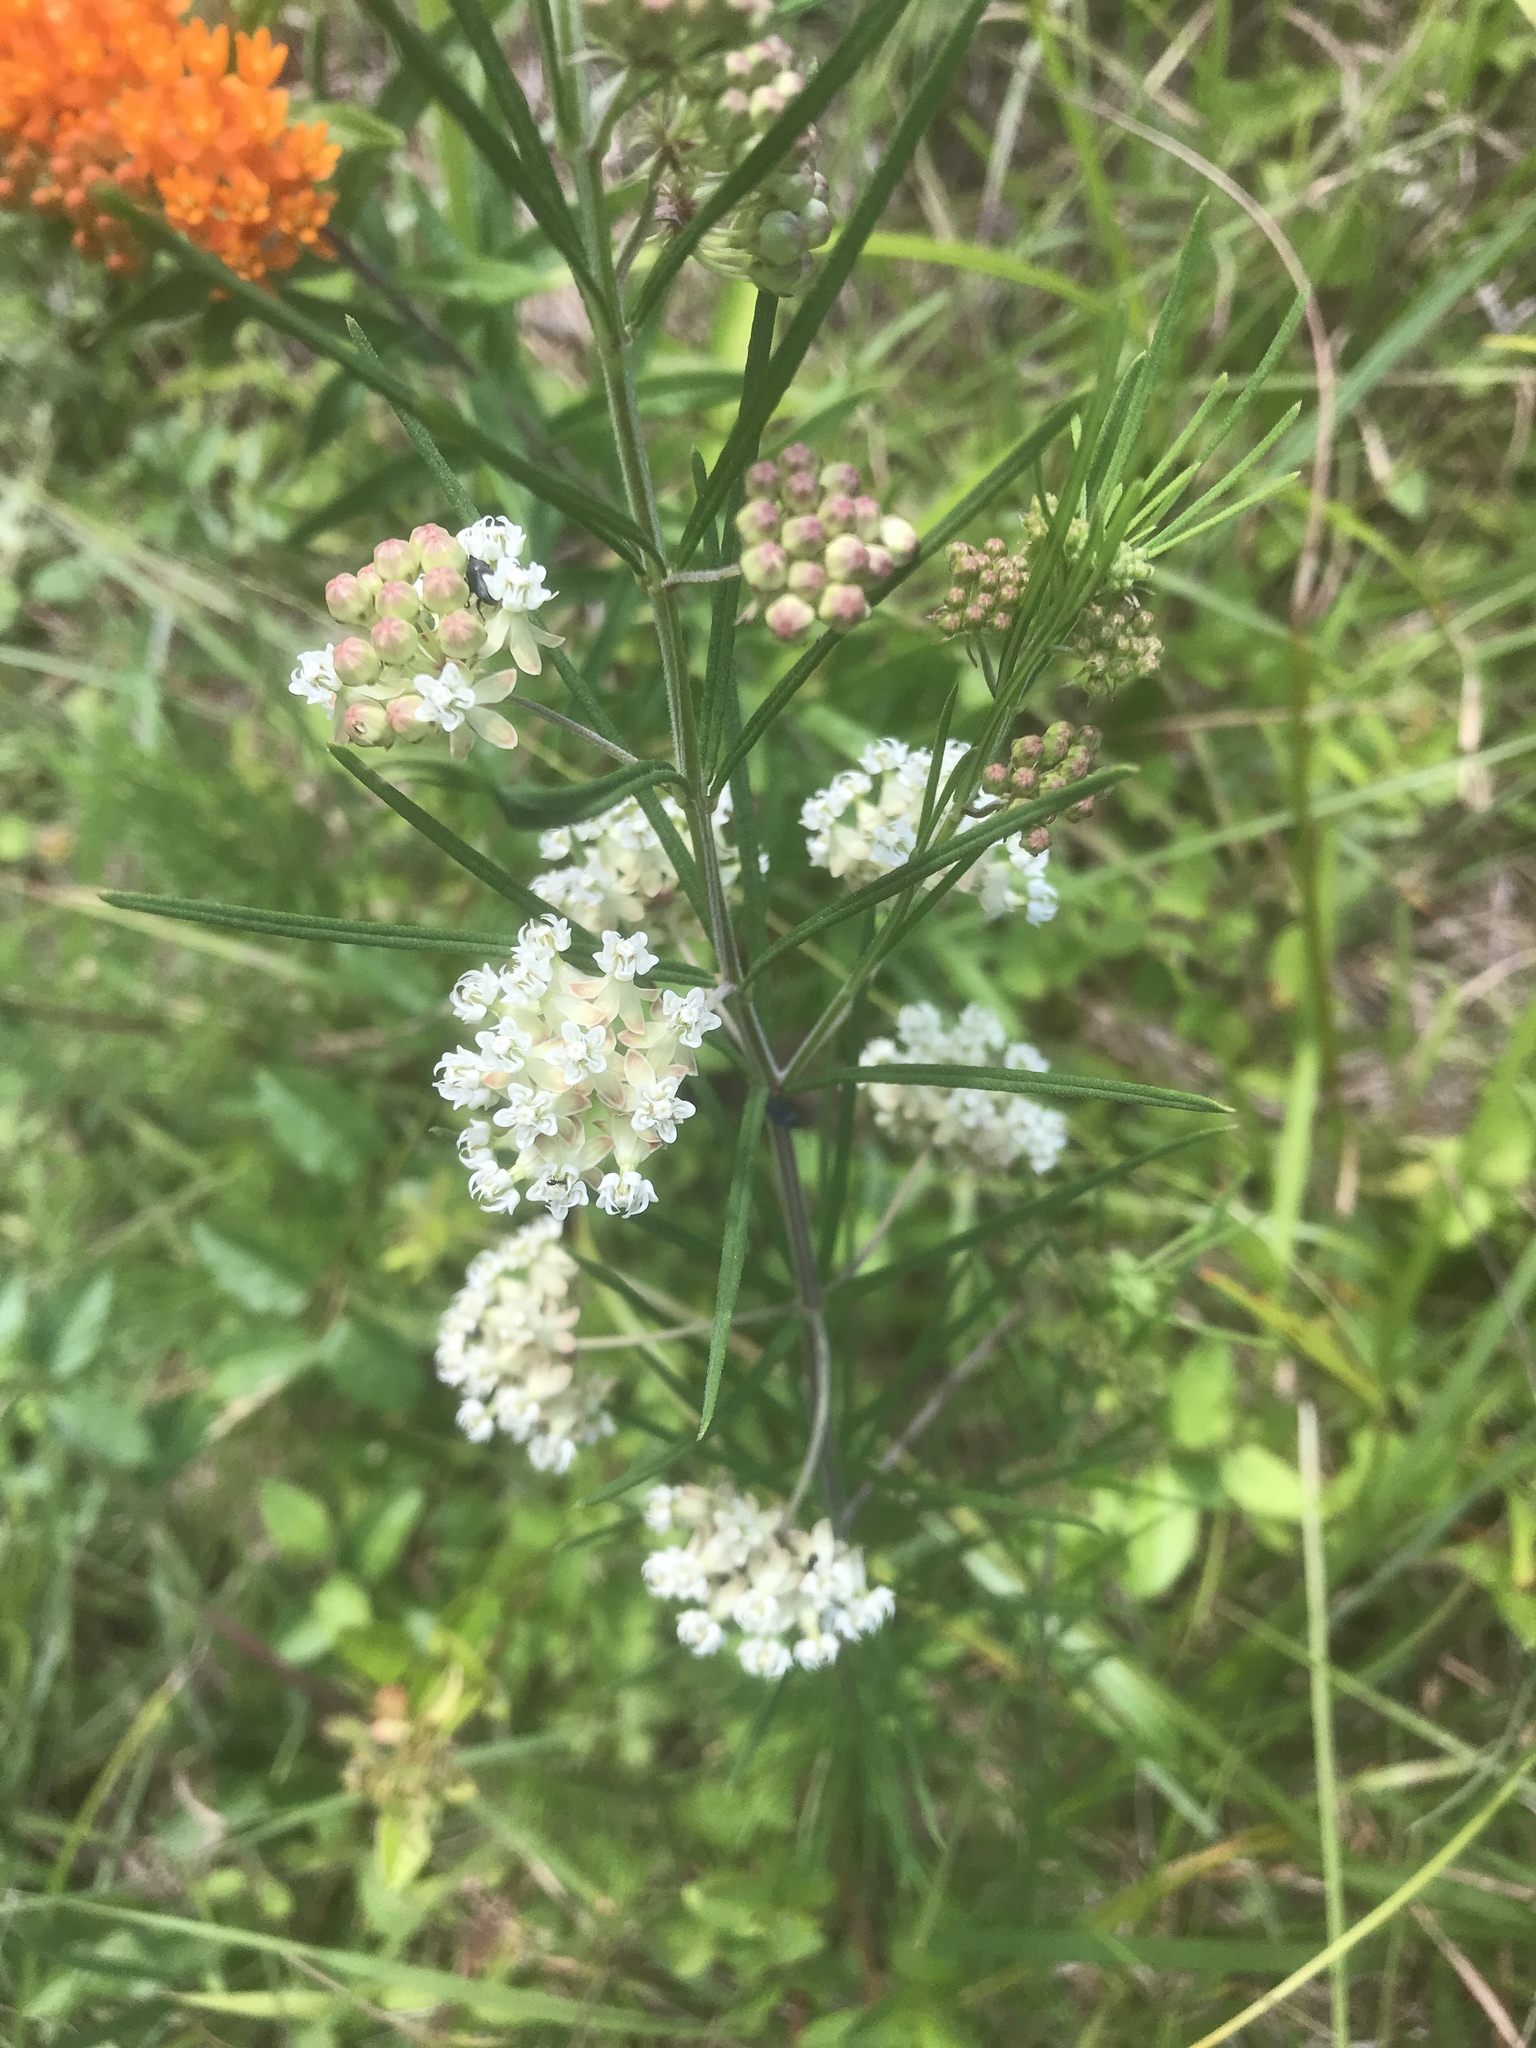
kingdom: Plantae
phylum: Tracheophyta
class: Magnoliopsida
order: Gentianales
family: Apocynaceae
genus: Asclepias
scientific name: Asclepias verticillata
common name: Eastern whorled milkweed
